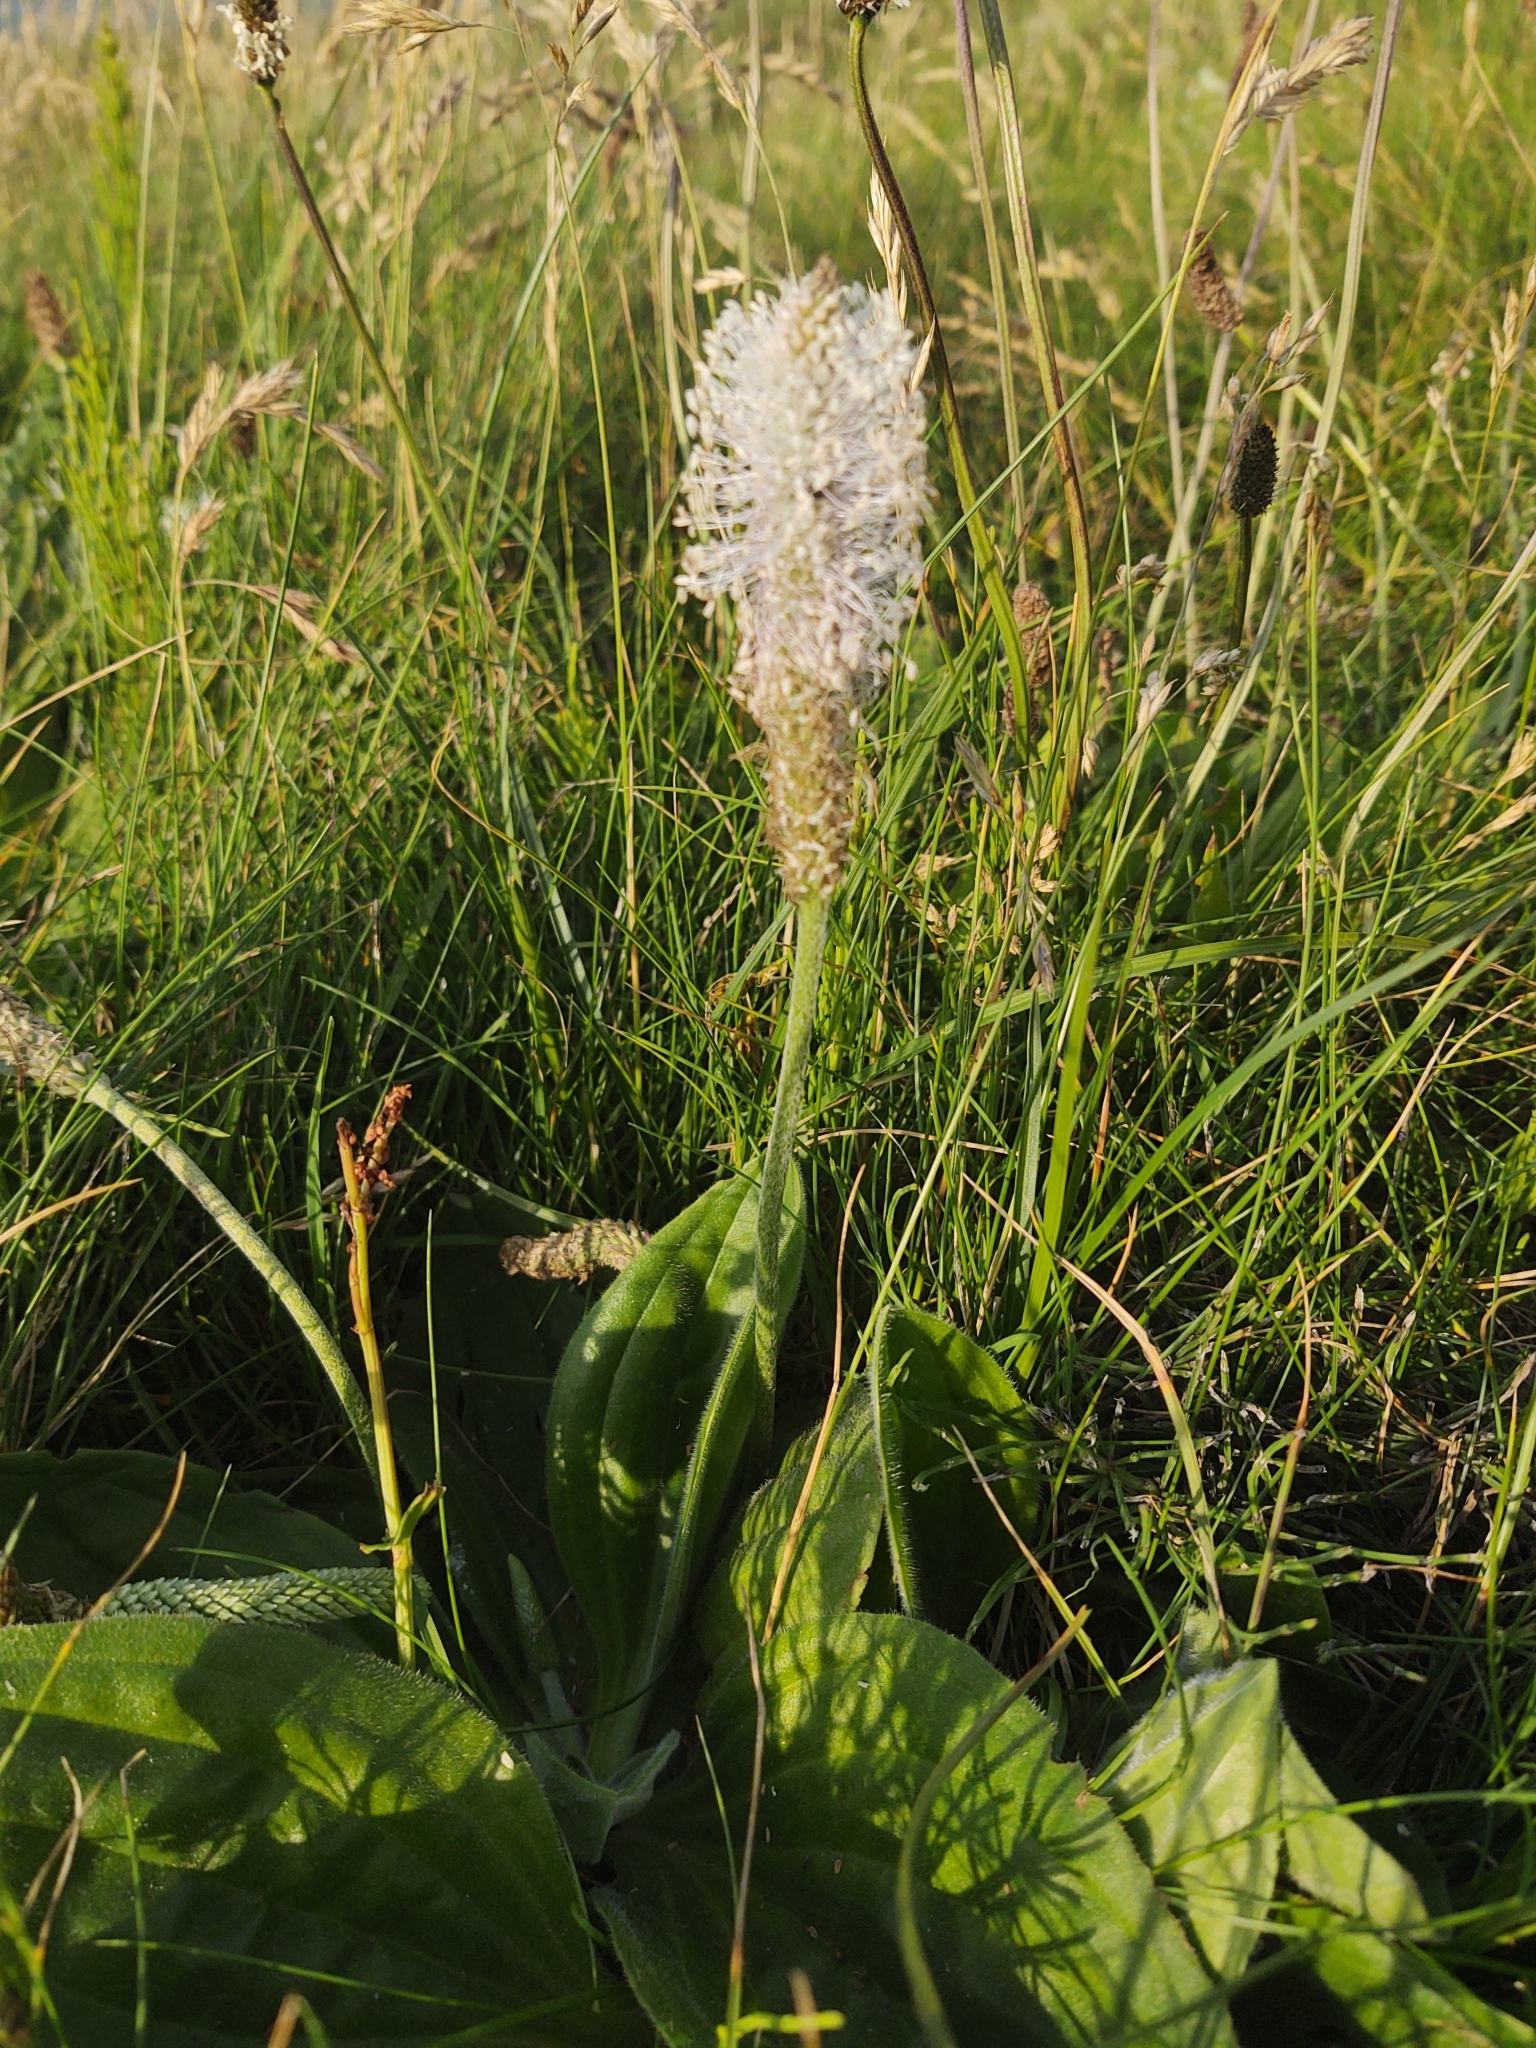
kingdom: Plantae
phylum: Tracheophyta
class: Magnoliopsida
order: Lamiales
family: Plantaginaceae
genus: Plantago
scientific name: Plantago media
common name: Hoary plantain
